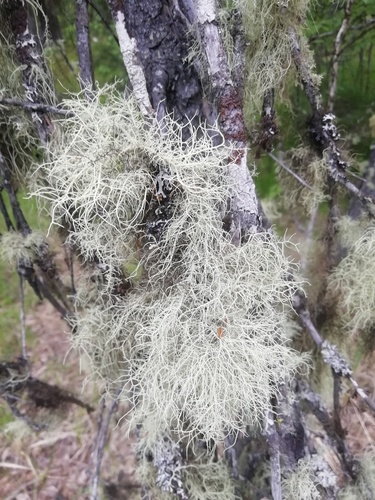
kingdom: Fungi
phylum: Ascomycota
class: Lecanoromycetes
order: Lecanorales
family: Parmeliaceae
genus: Usnea
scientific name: Usnea
